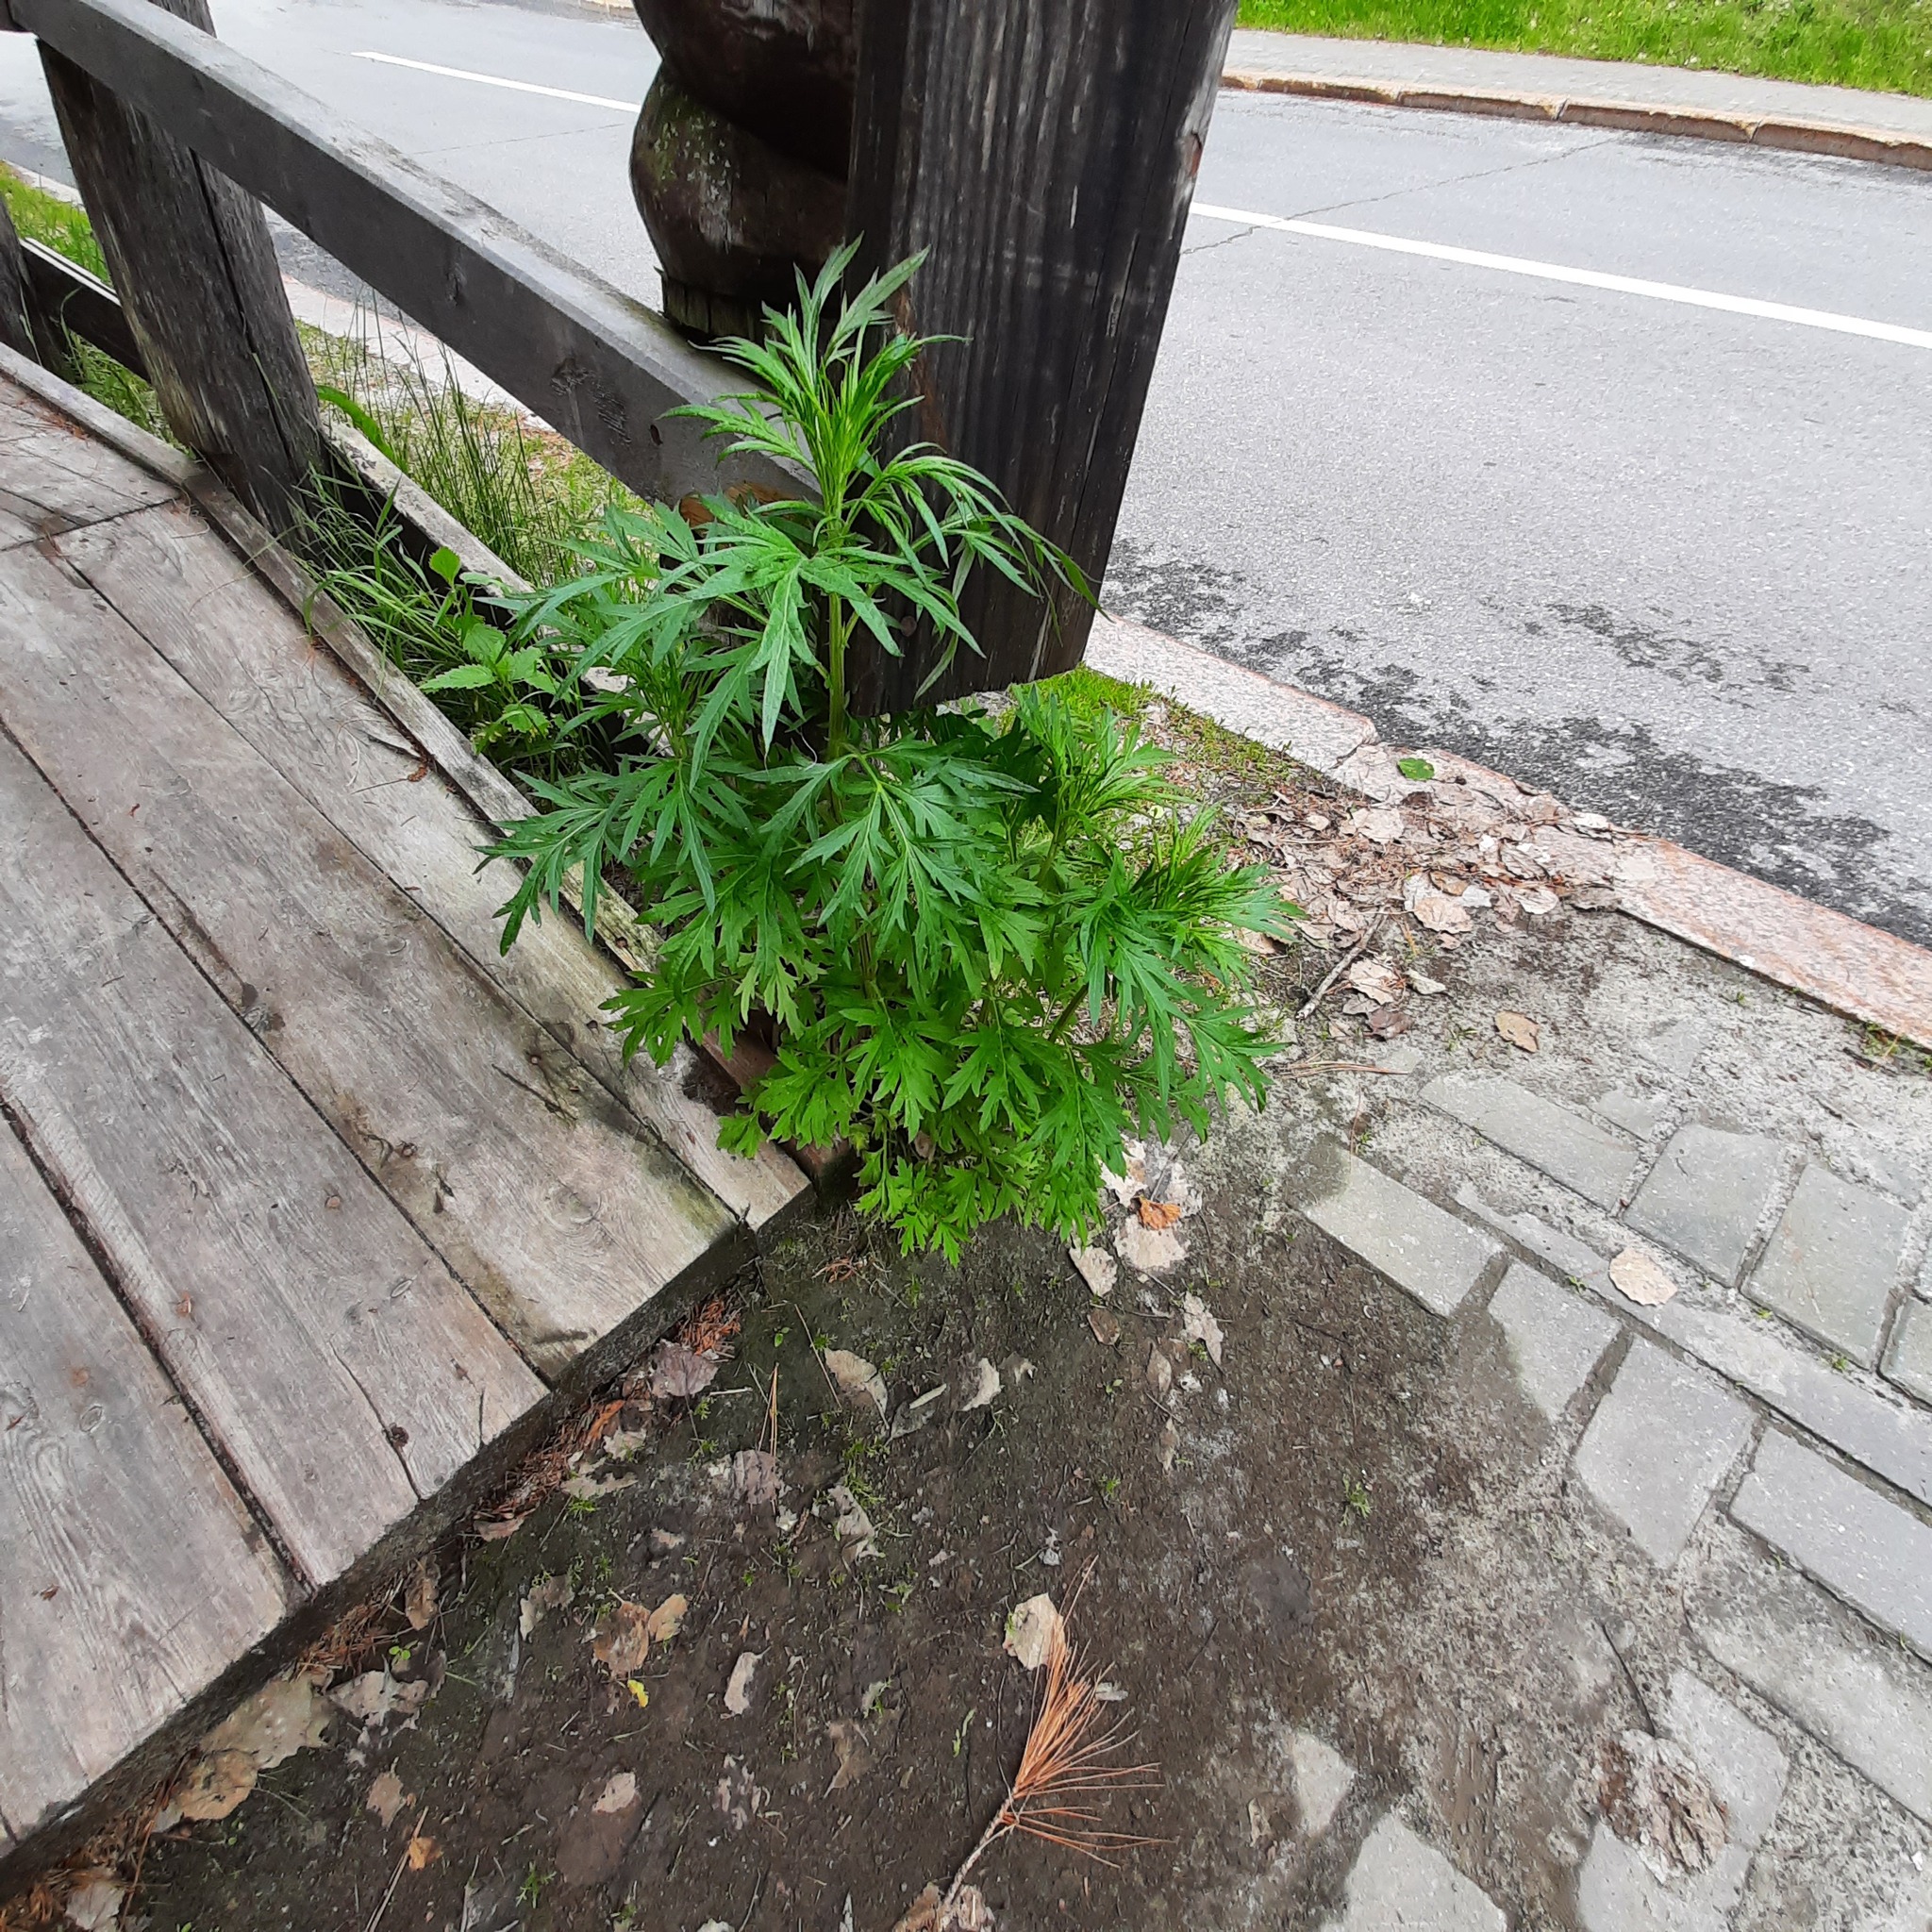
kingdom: Plantae
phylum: Tracheophyta
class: Magnoliopsida
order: Asterales
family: Asteraceae
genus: Artemisia
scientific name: Artemisia vulgaris
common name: Mugwort
